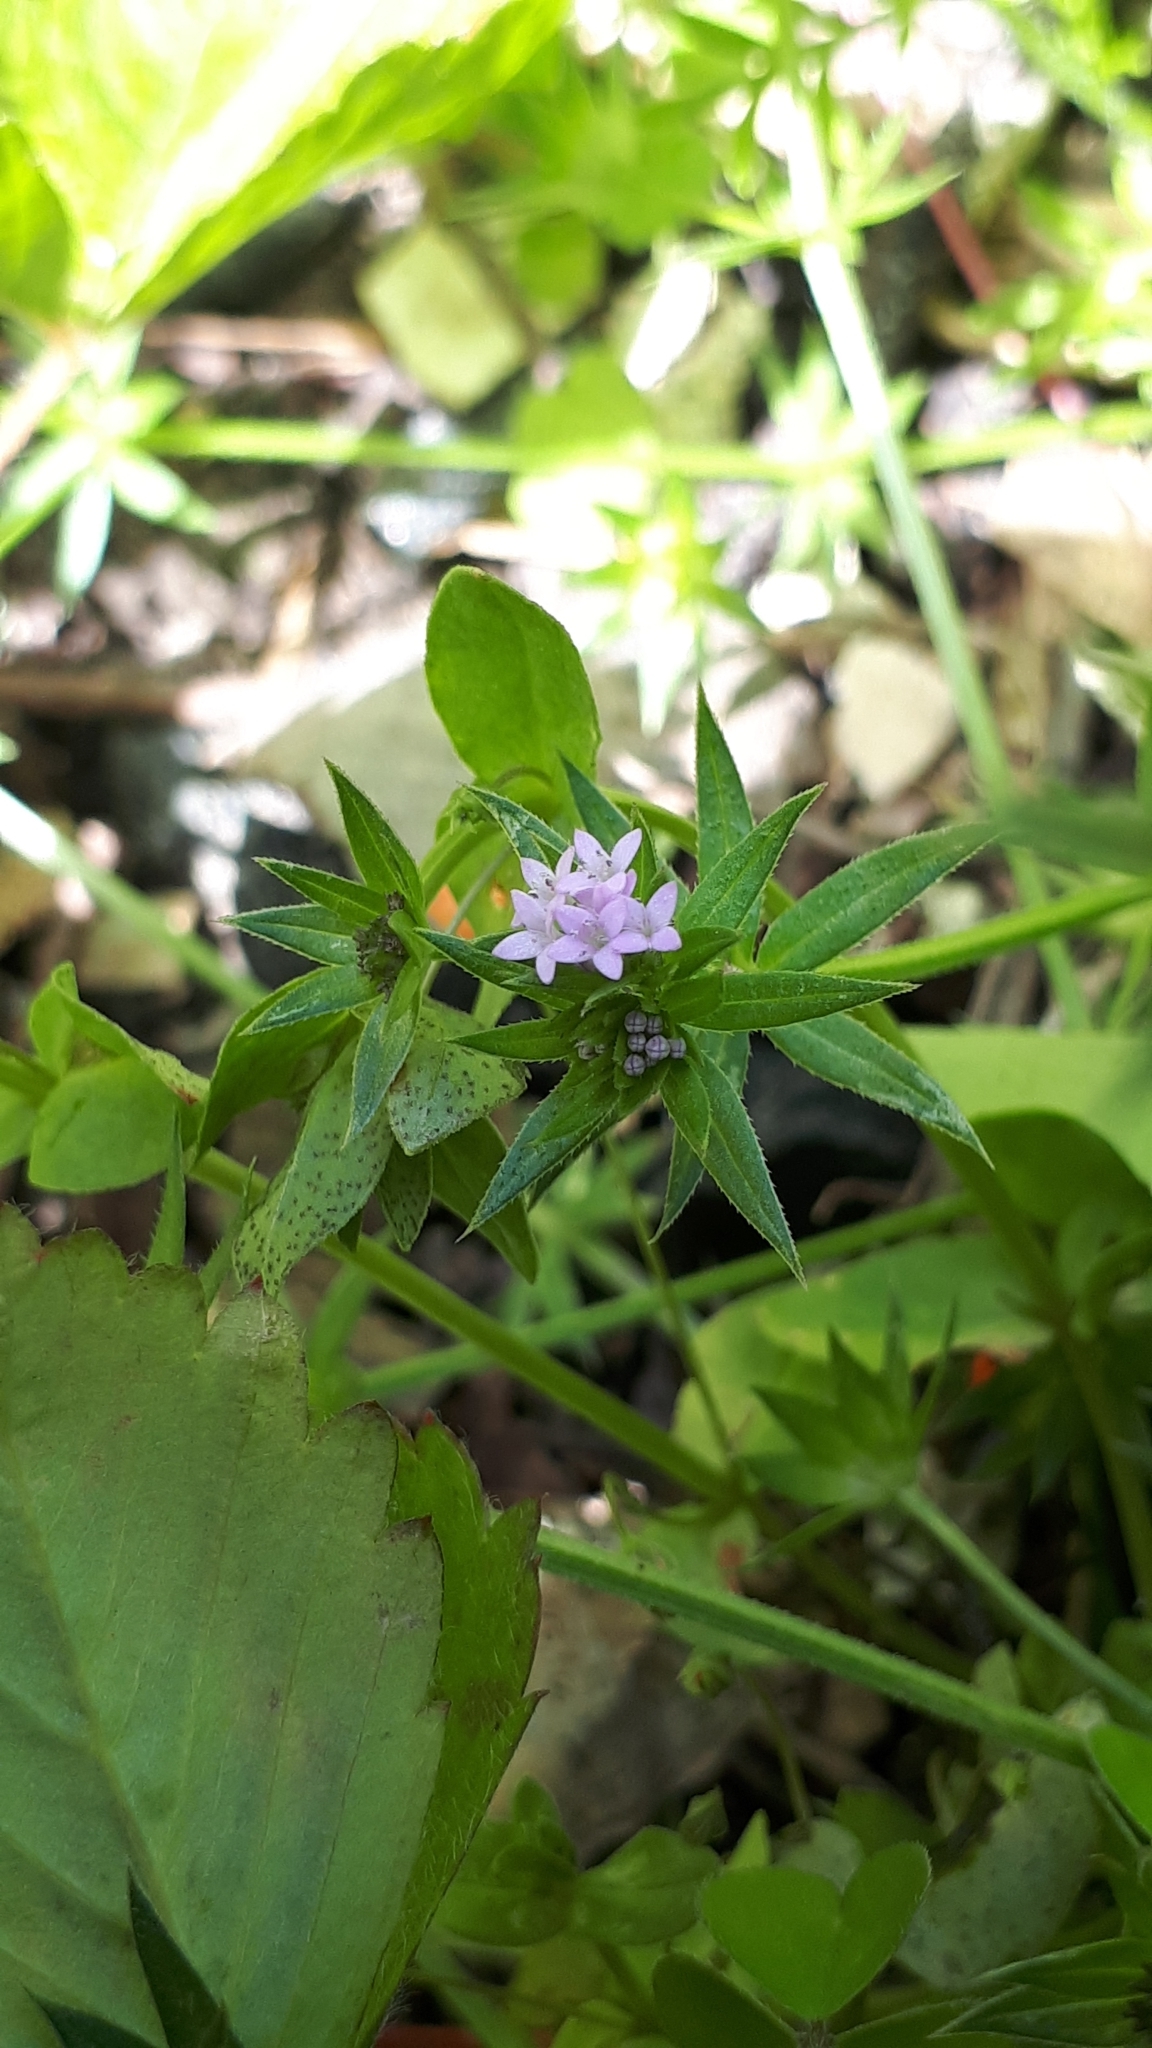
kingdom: Plantae
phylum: Tracheophyta
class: Magnoliopsida
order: Gentianales
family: Rubiaceae
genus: Sherardia
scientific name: Sherardia arvensis
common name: Field madder
